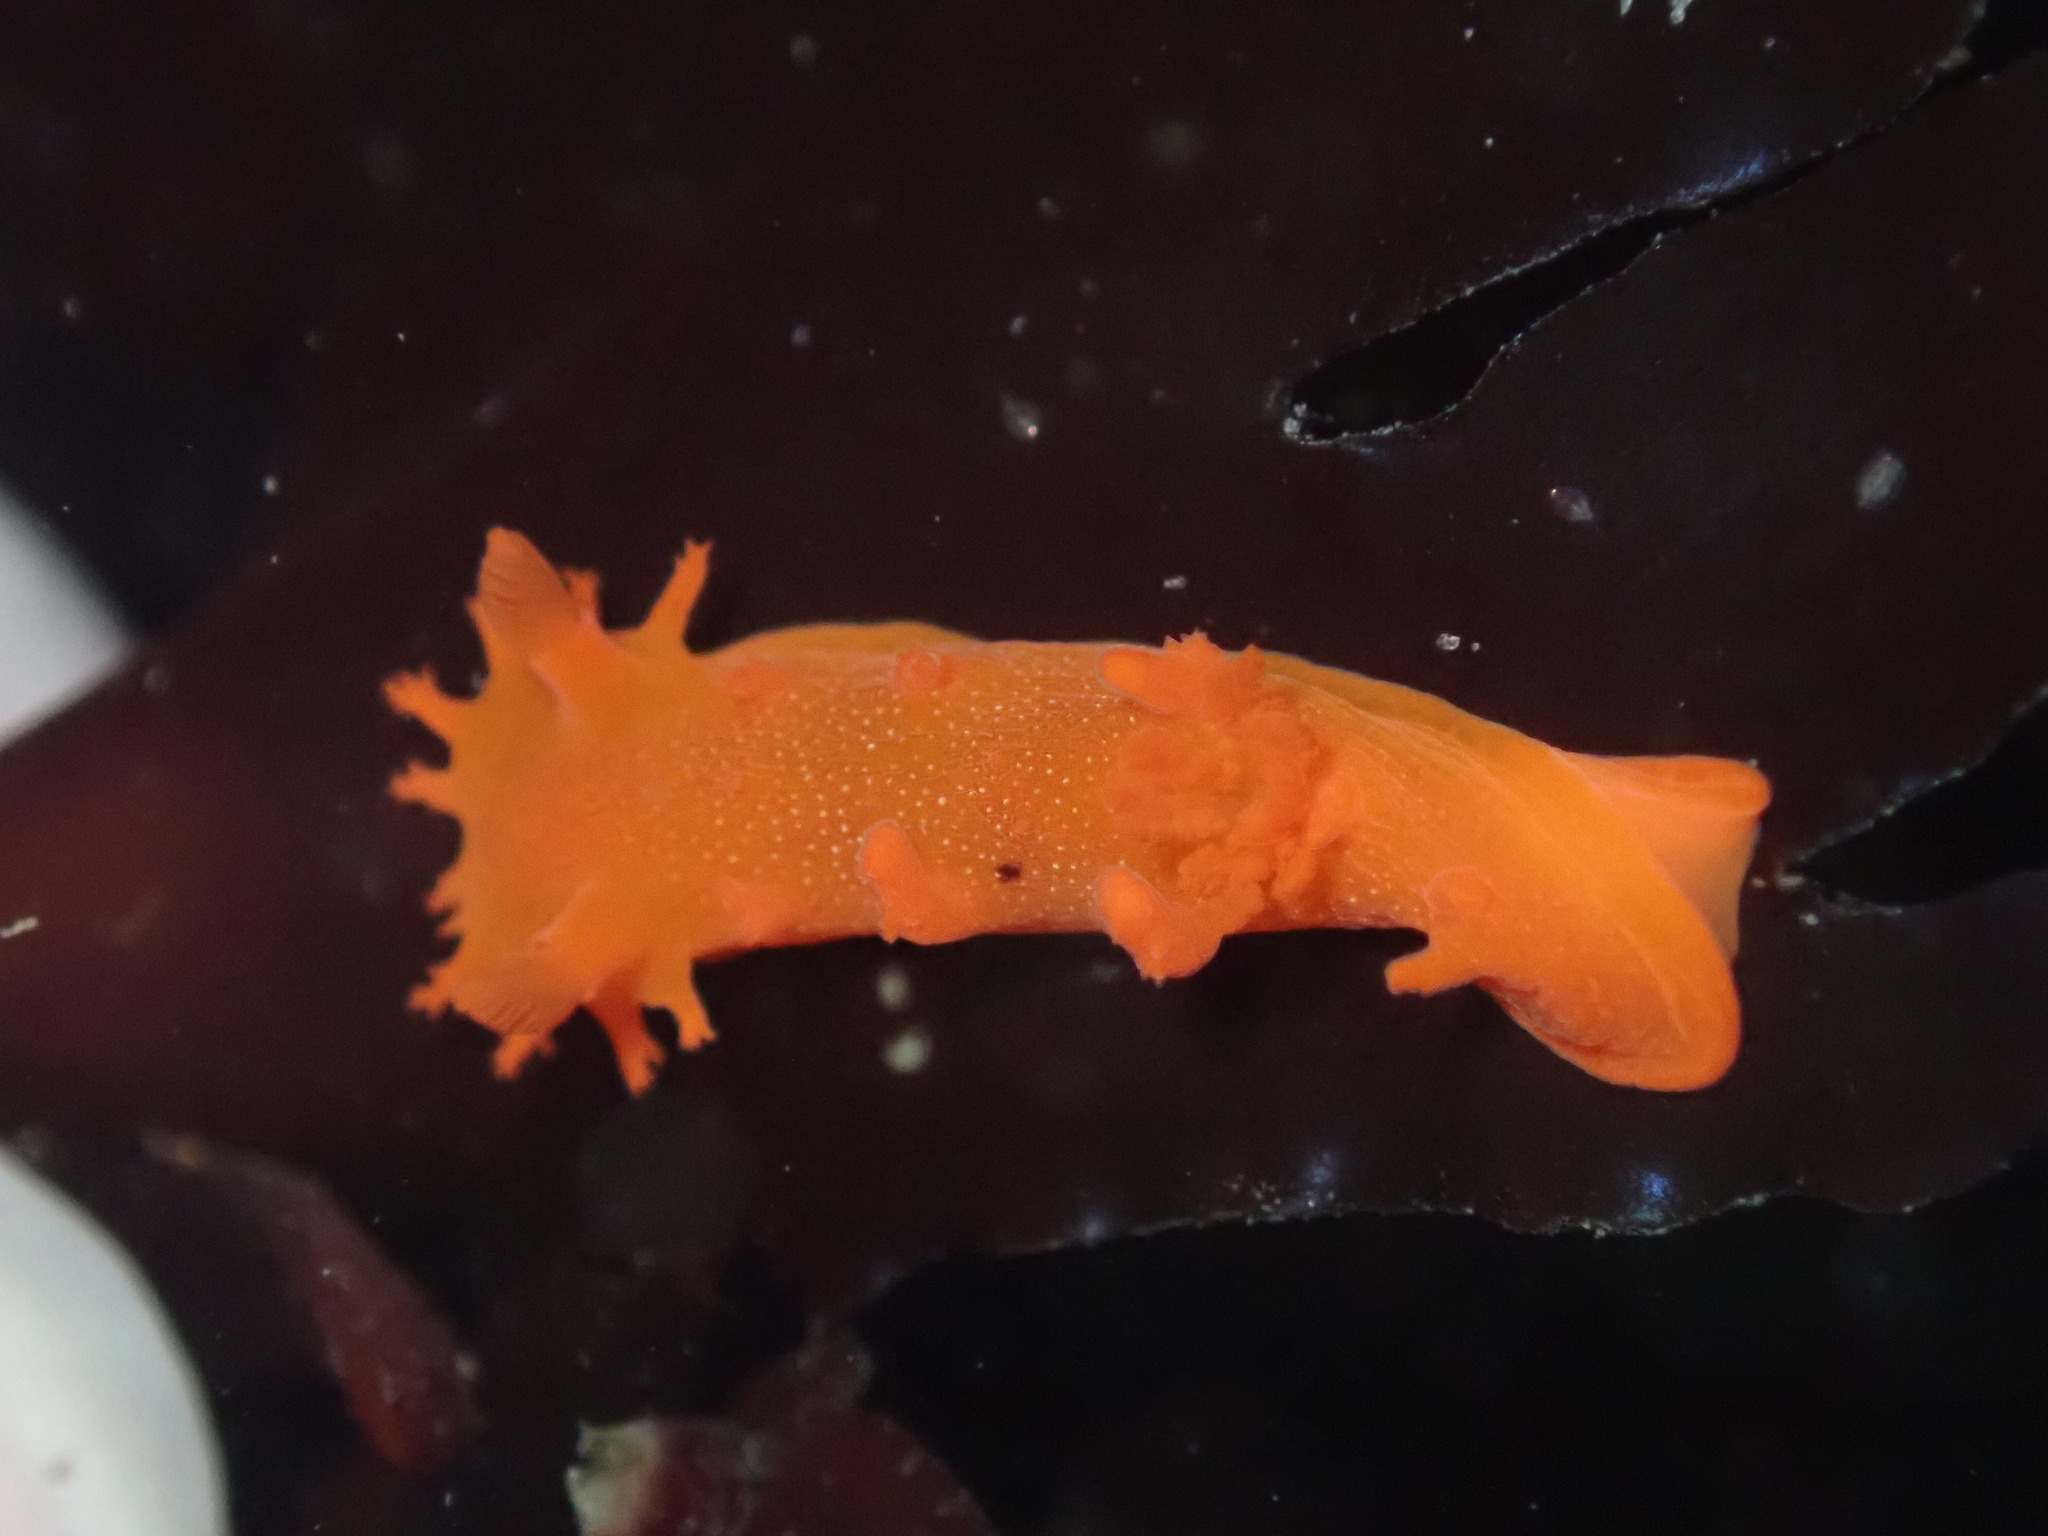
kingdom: Animalia
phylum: Mollusca
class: Gastropoda
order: Nudibranchia
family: Polyceridae
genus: Triopha
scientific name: Triopha maculata
